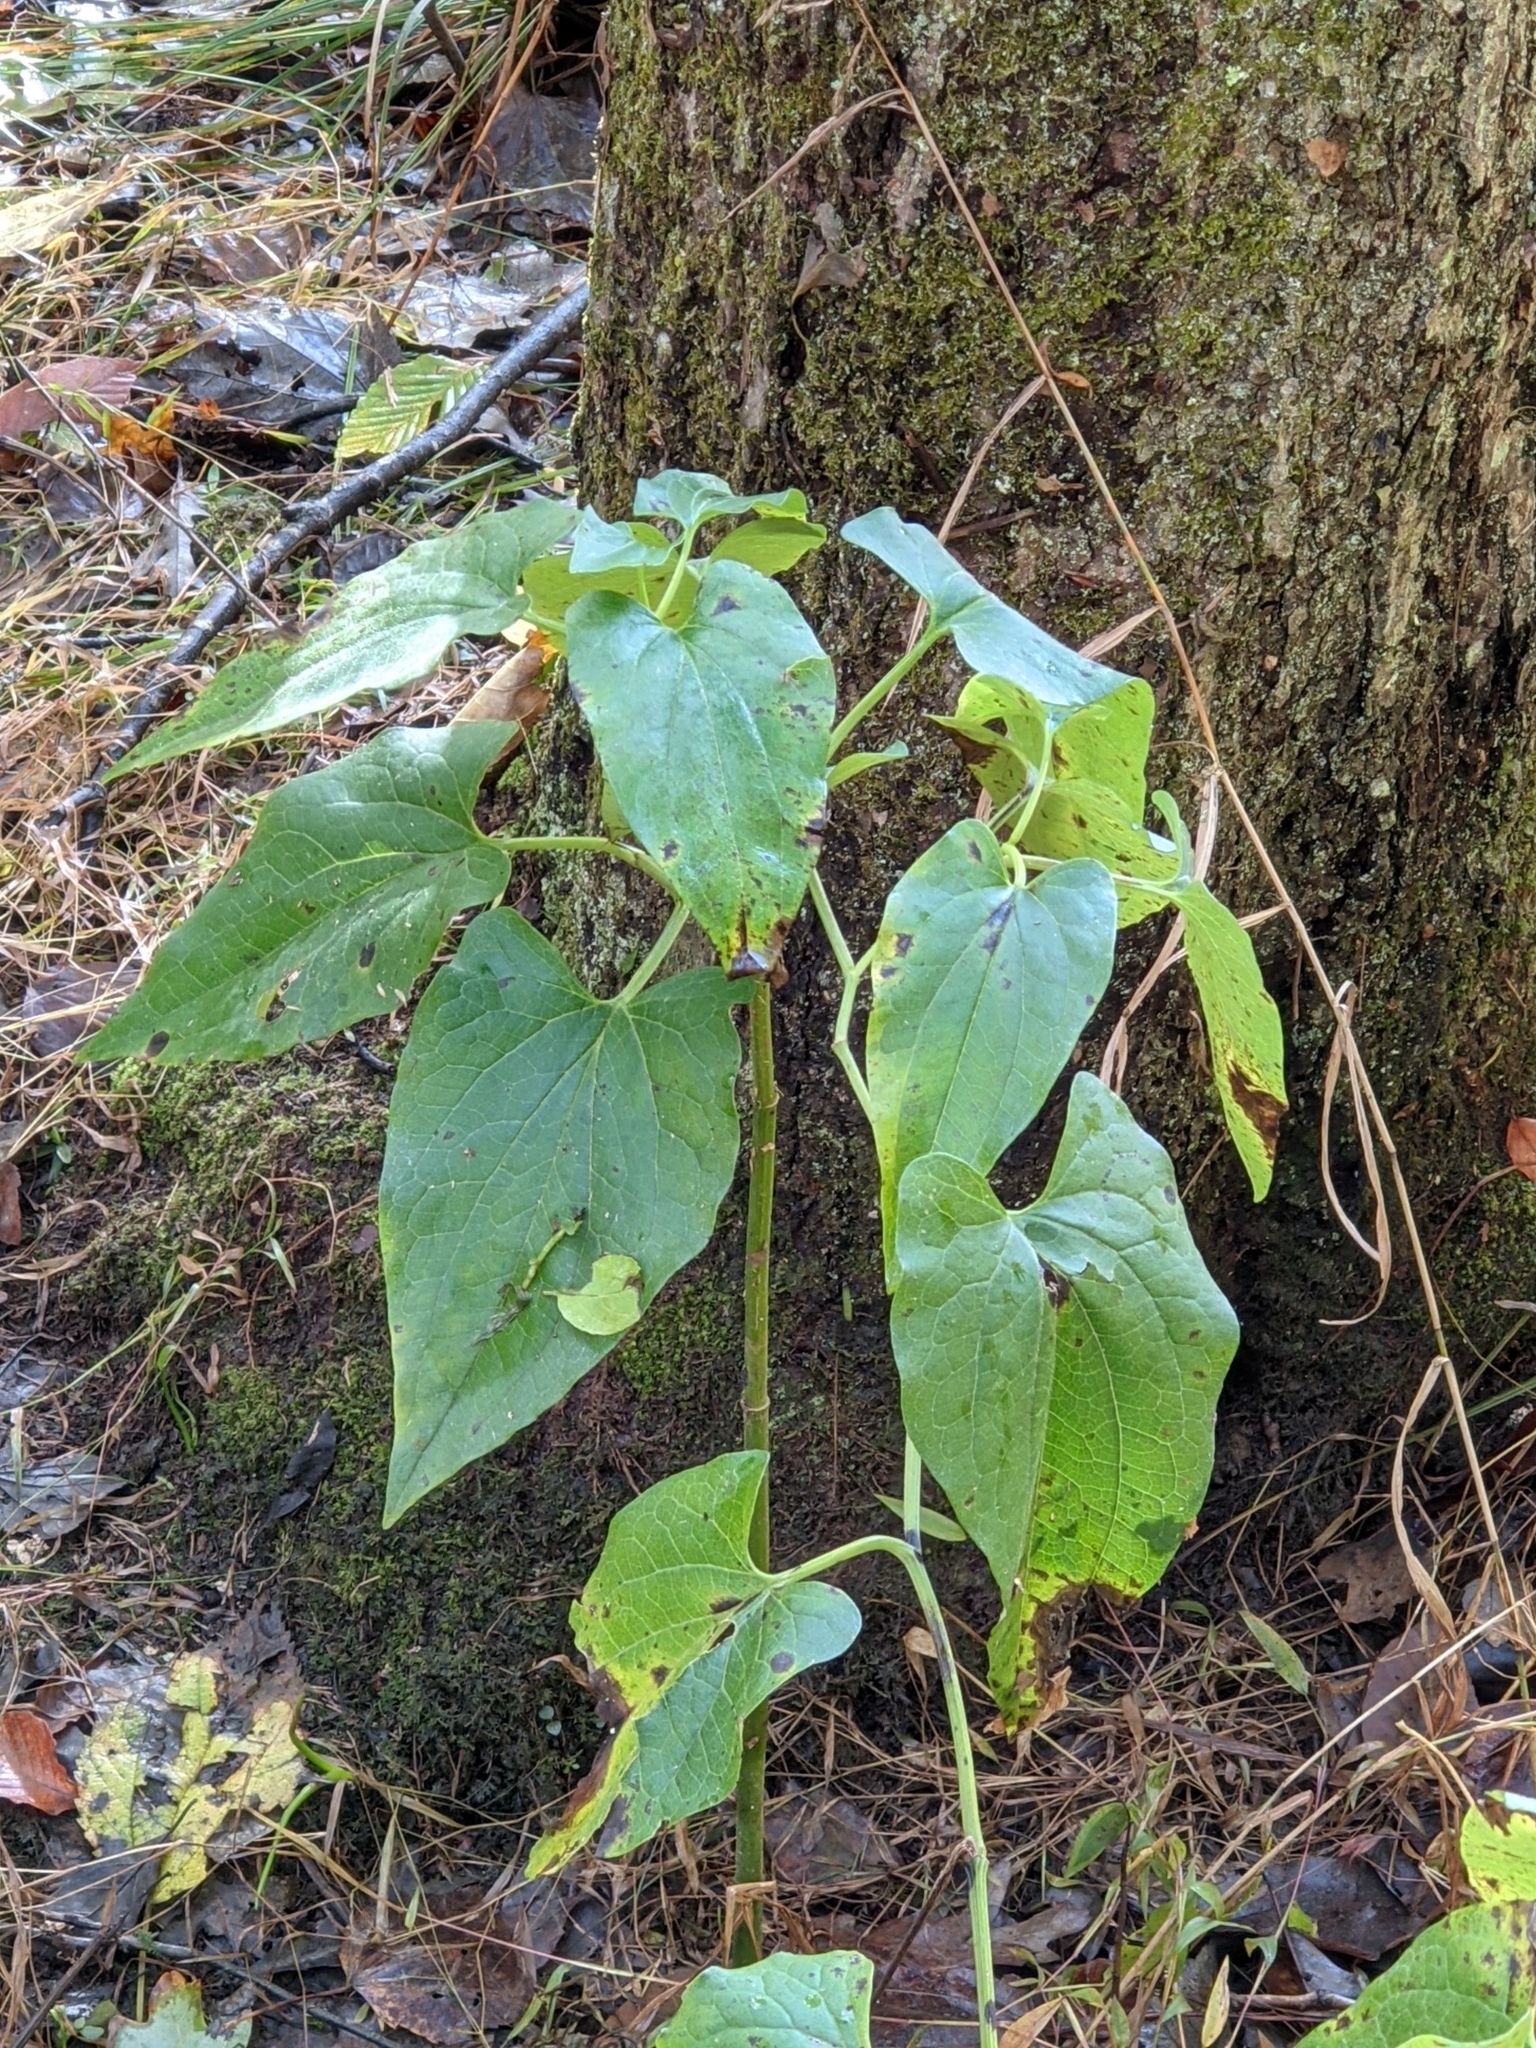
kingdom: Plantae
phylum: Tracheophyta
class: Magnoliopsida
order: Piperales
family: Saururaceae
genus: Saururus
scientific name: Saururus cernuus
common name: Lizard's-tail
